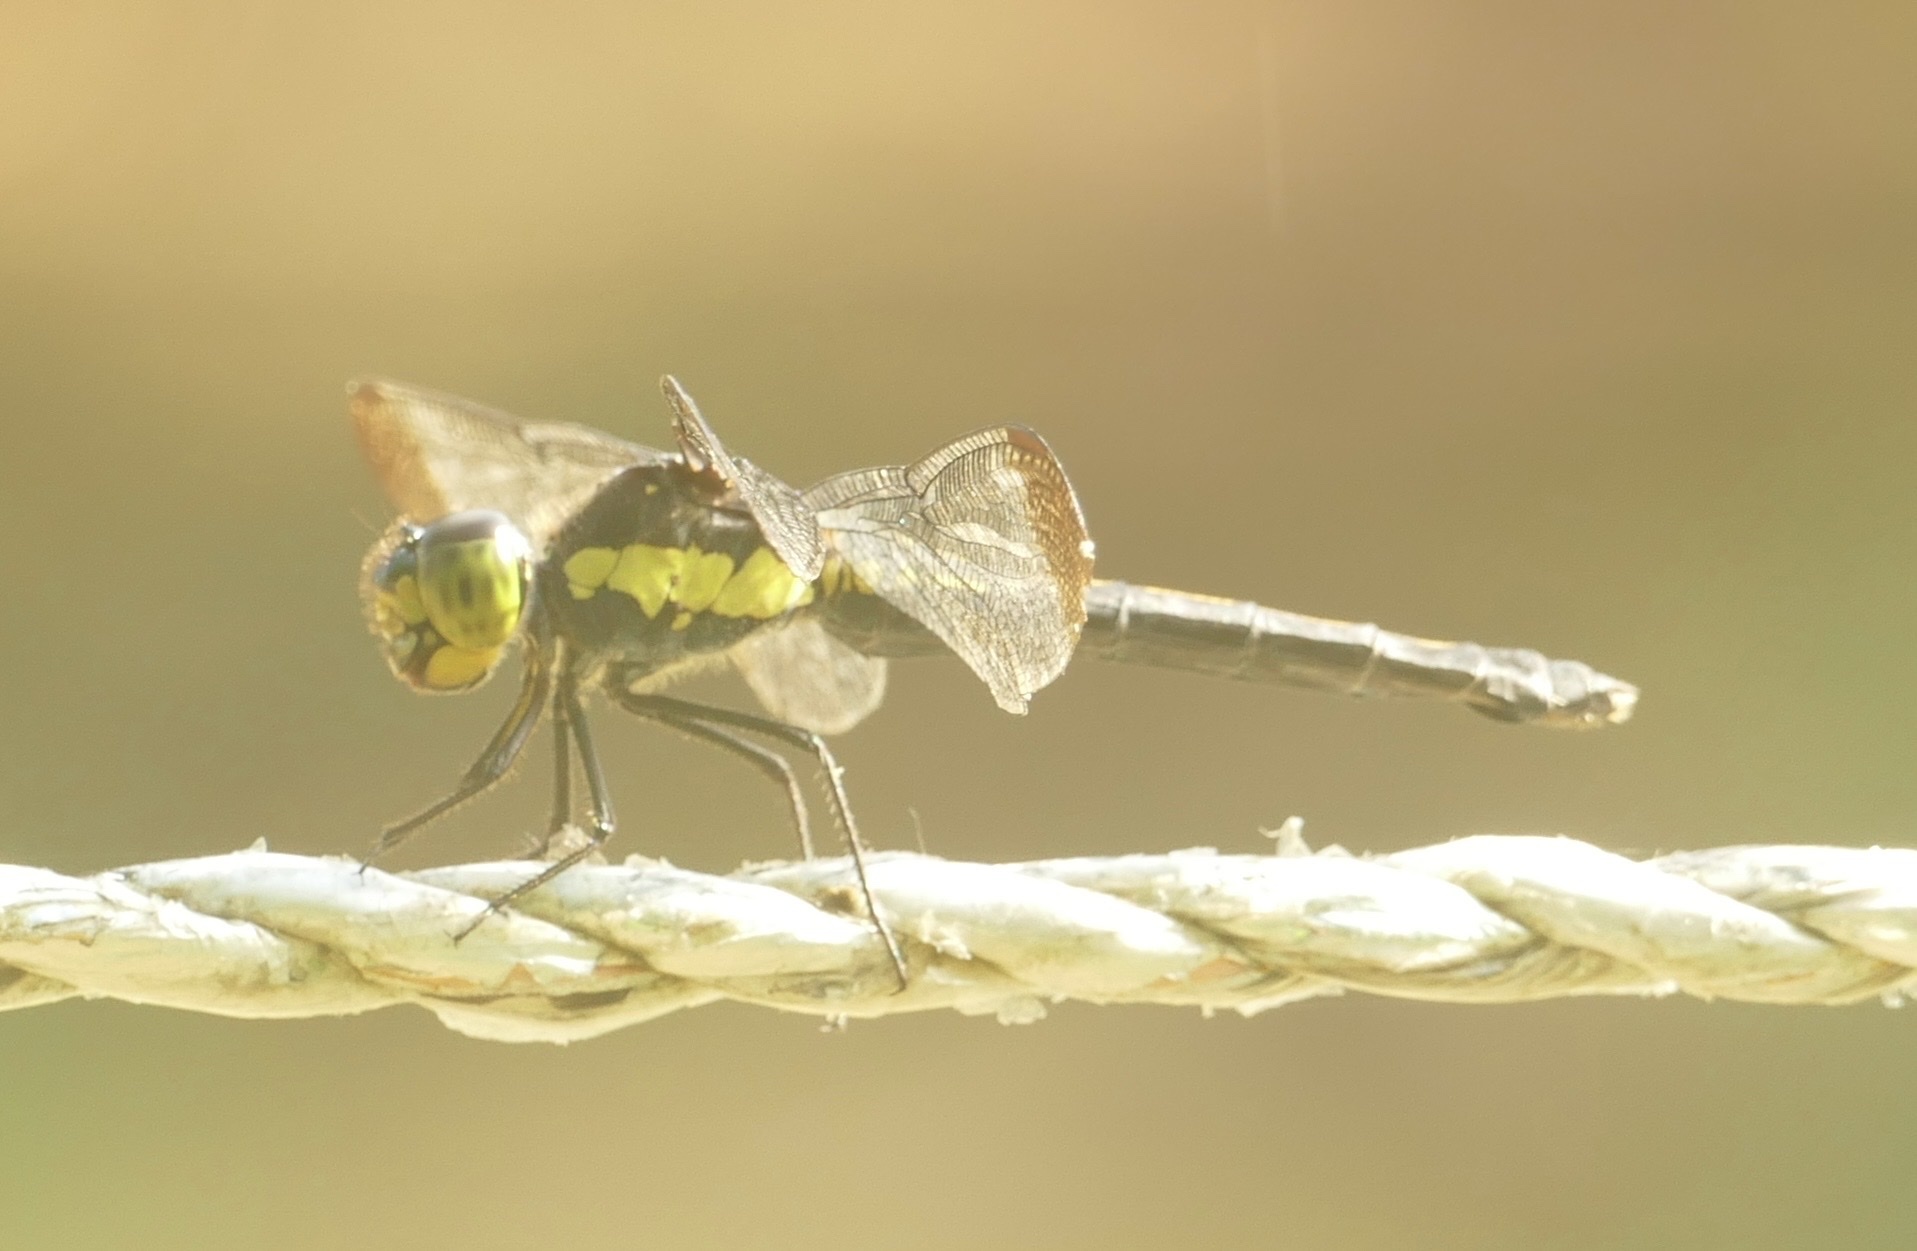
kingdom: Animalia
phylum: Arthropoda
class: Insecta
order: Odonata
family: Libellulidae
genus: Agrionoptera
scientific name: Agrionoptera longitudinalis
